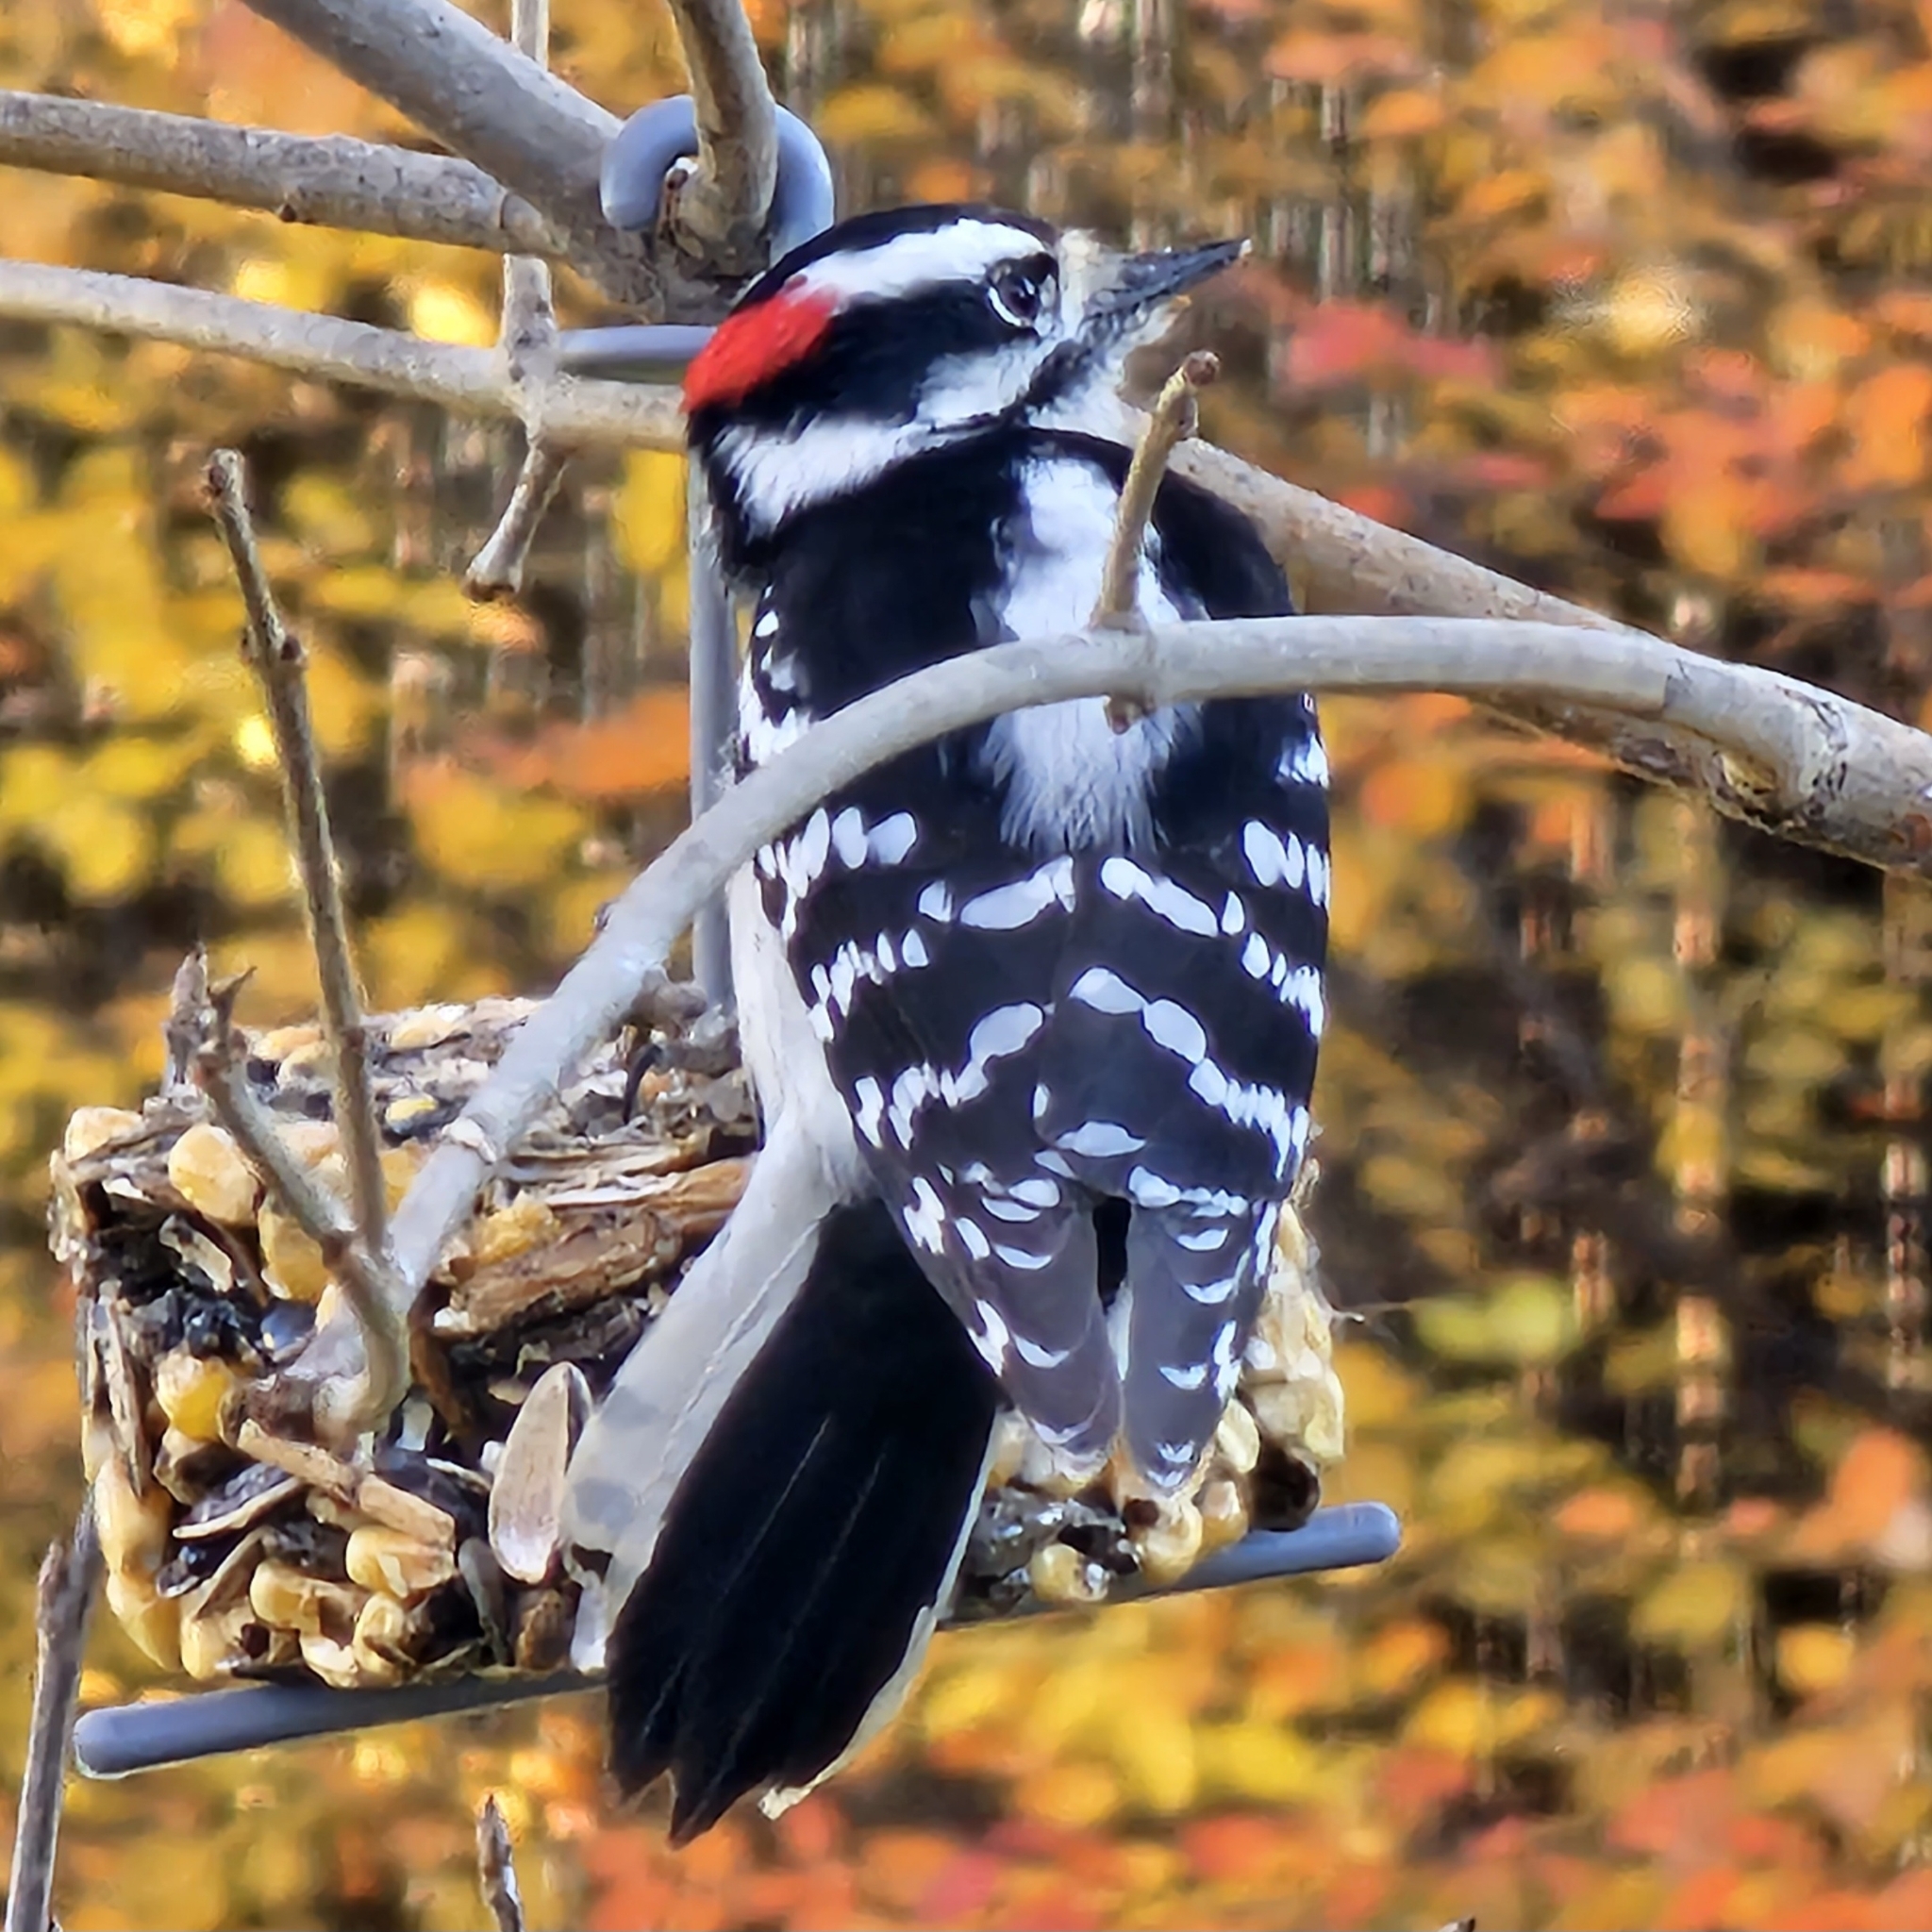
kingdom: Animalia
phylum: Chordata
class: Aves
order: Piciformes
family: Picidae
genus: Dryobates
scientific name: Dryobates pubescens
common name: Downy woodpecker
